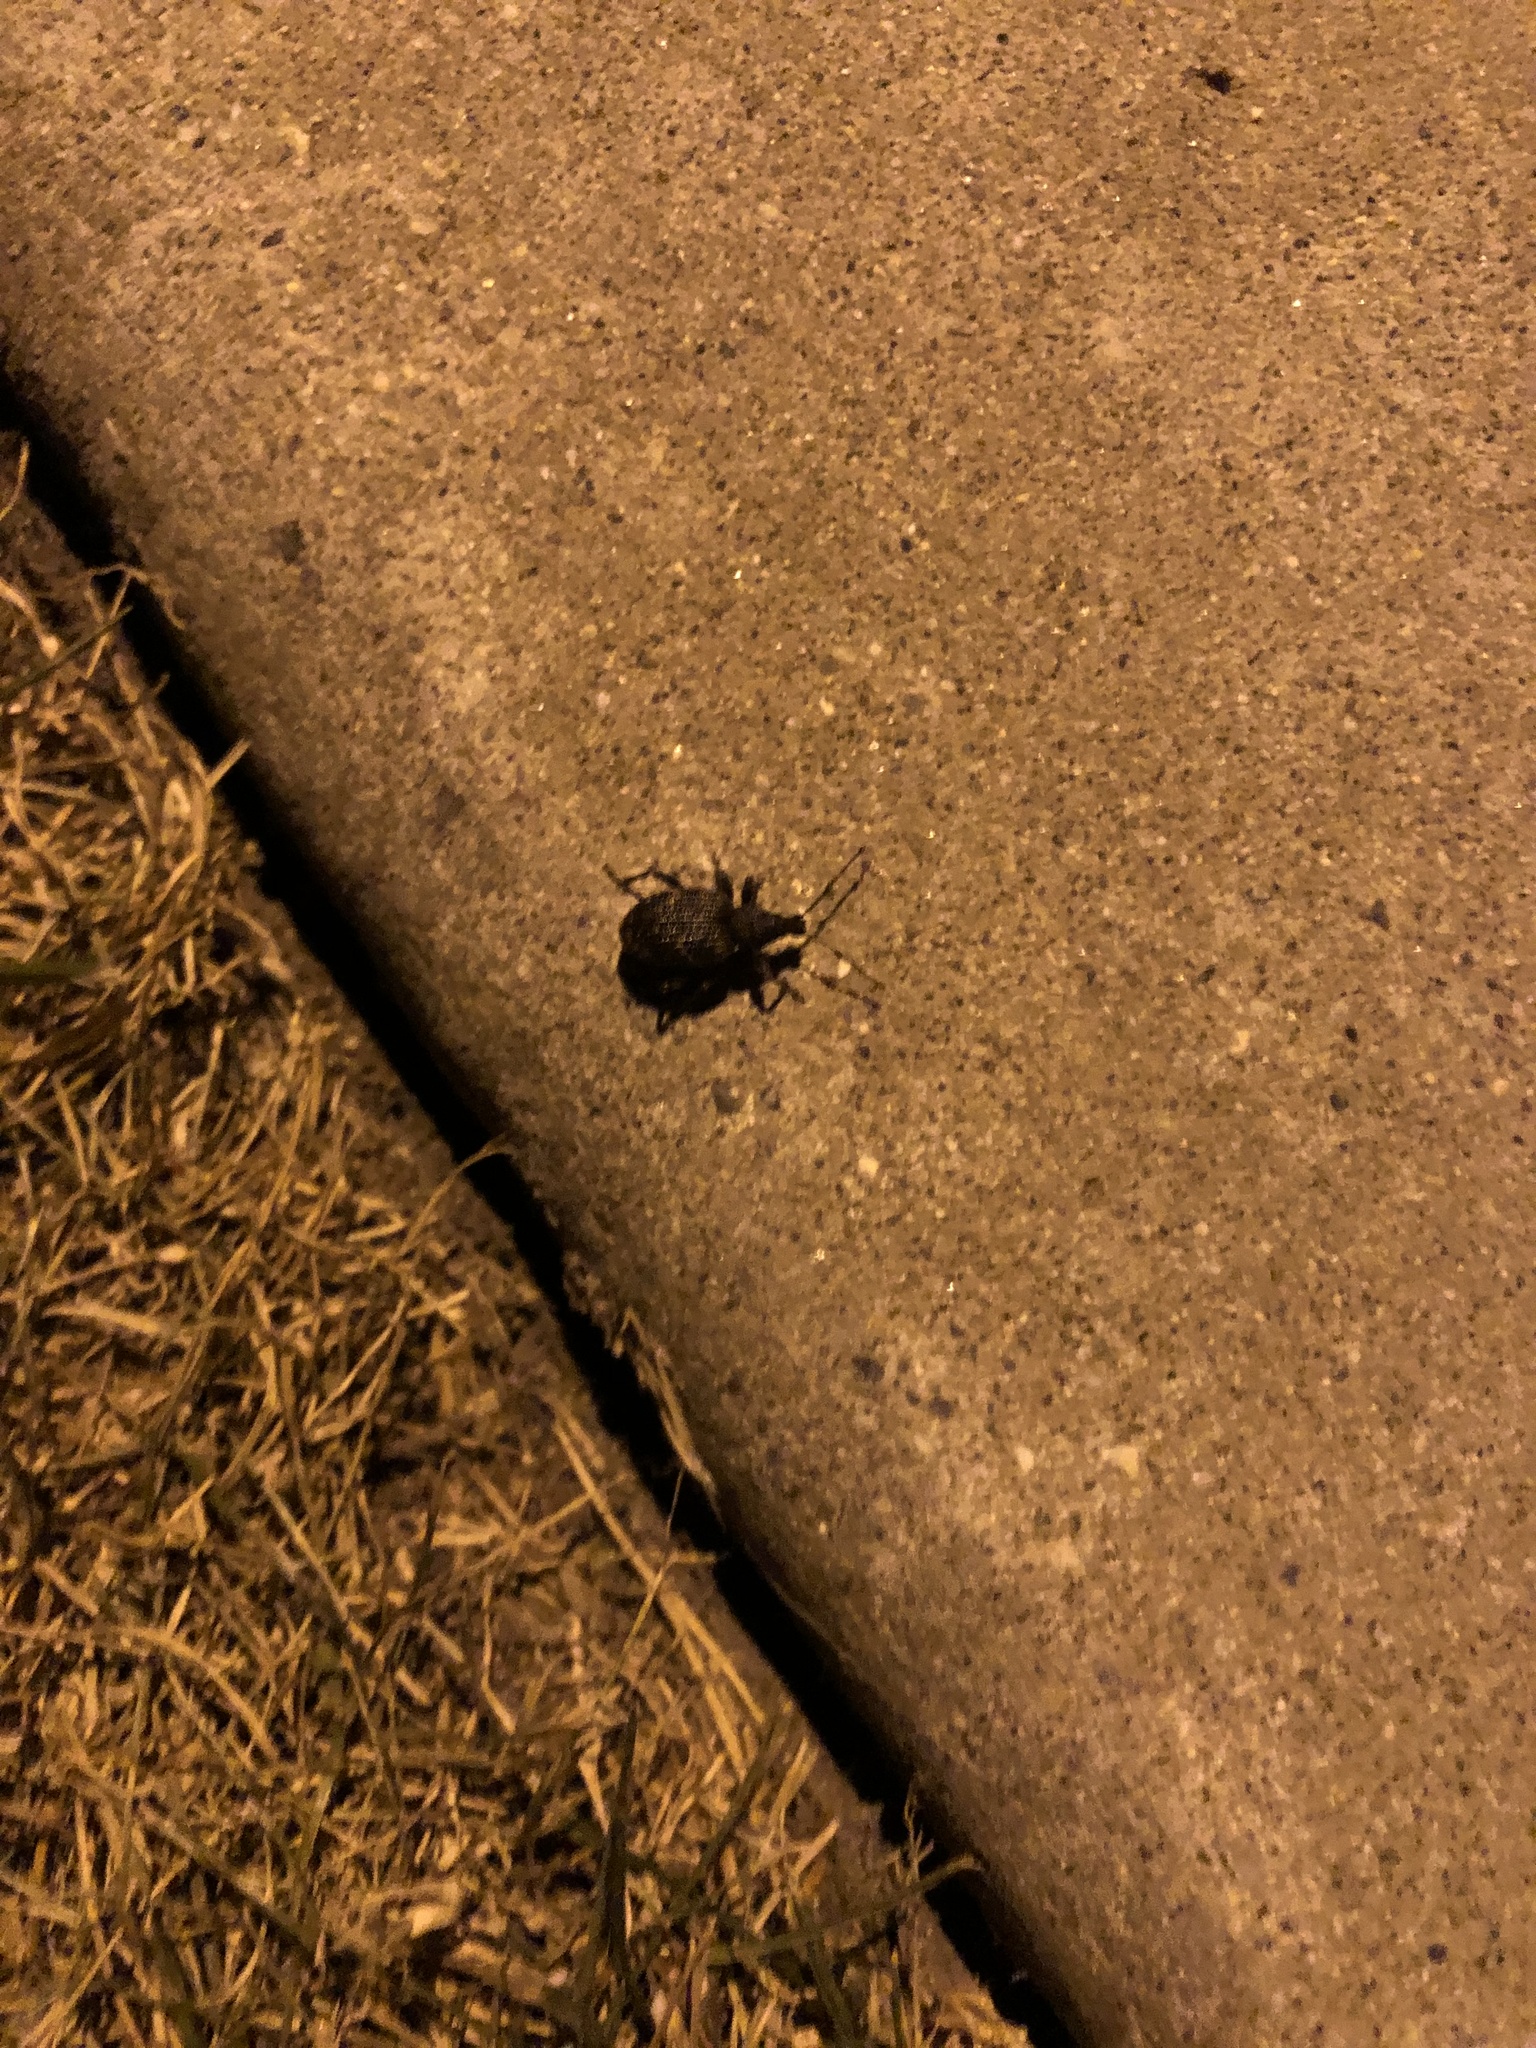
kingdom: Animalia
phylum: Arthropoda
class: Insecta
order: Coleoptera
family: Curculionidae
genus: Otiorhynchus
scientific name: Otiorhynchus sulcatus
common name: Black vine weevil
